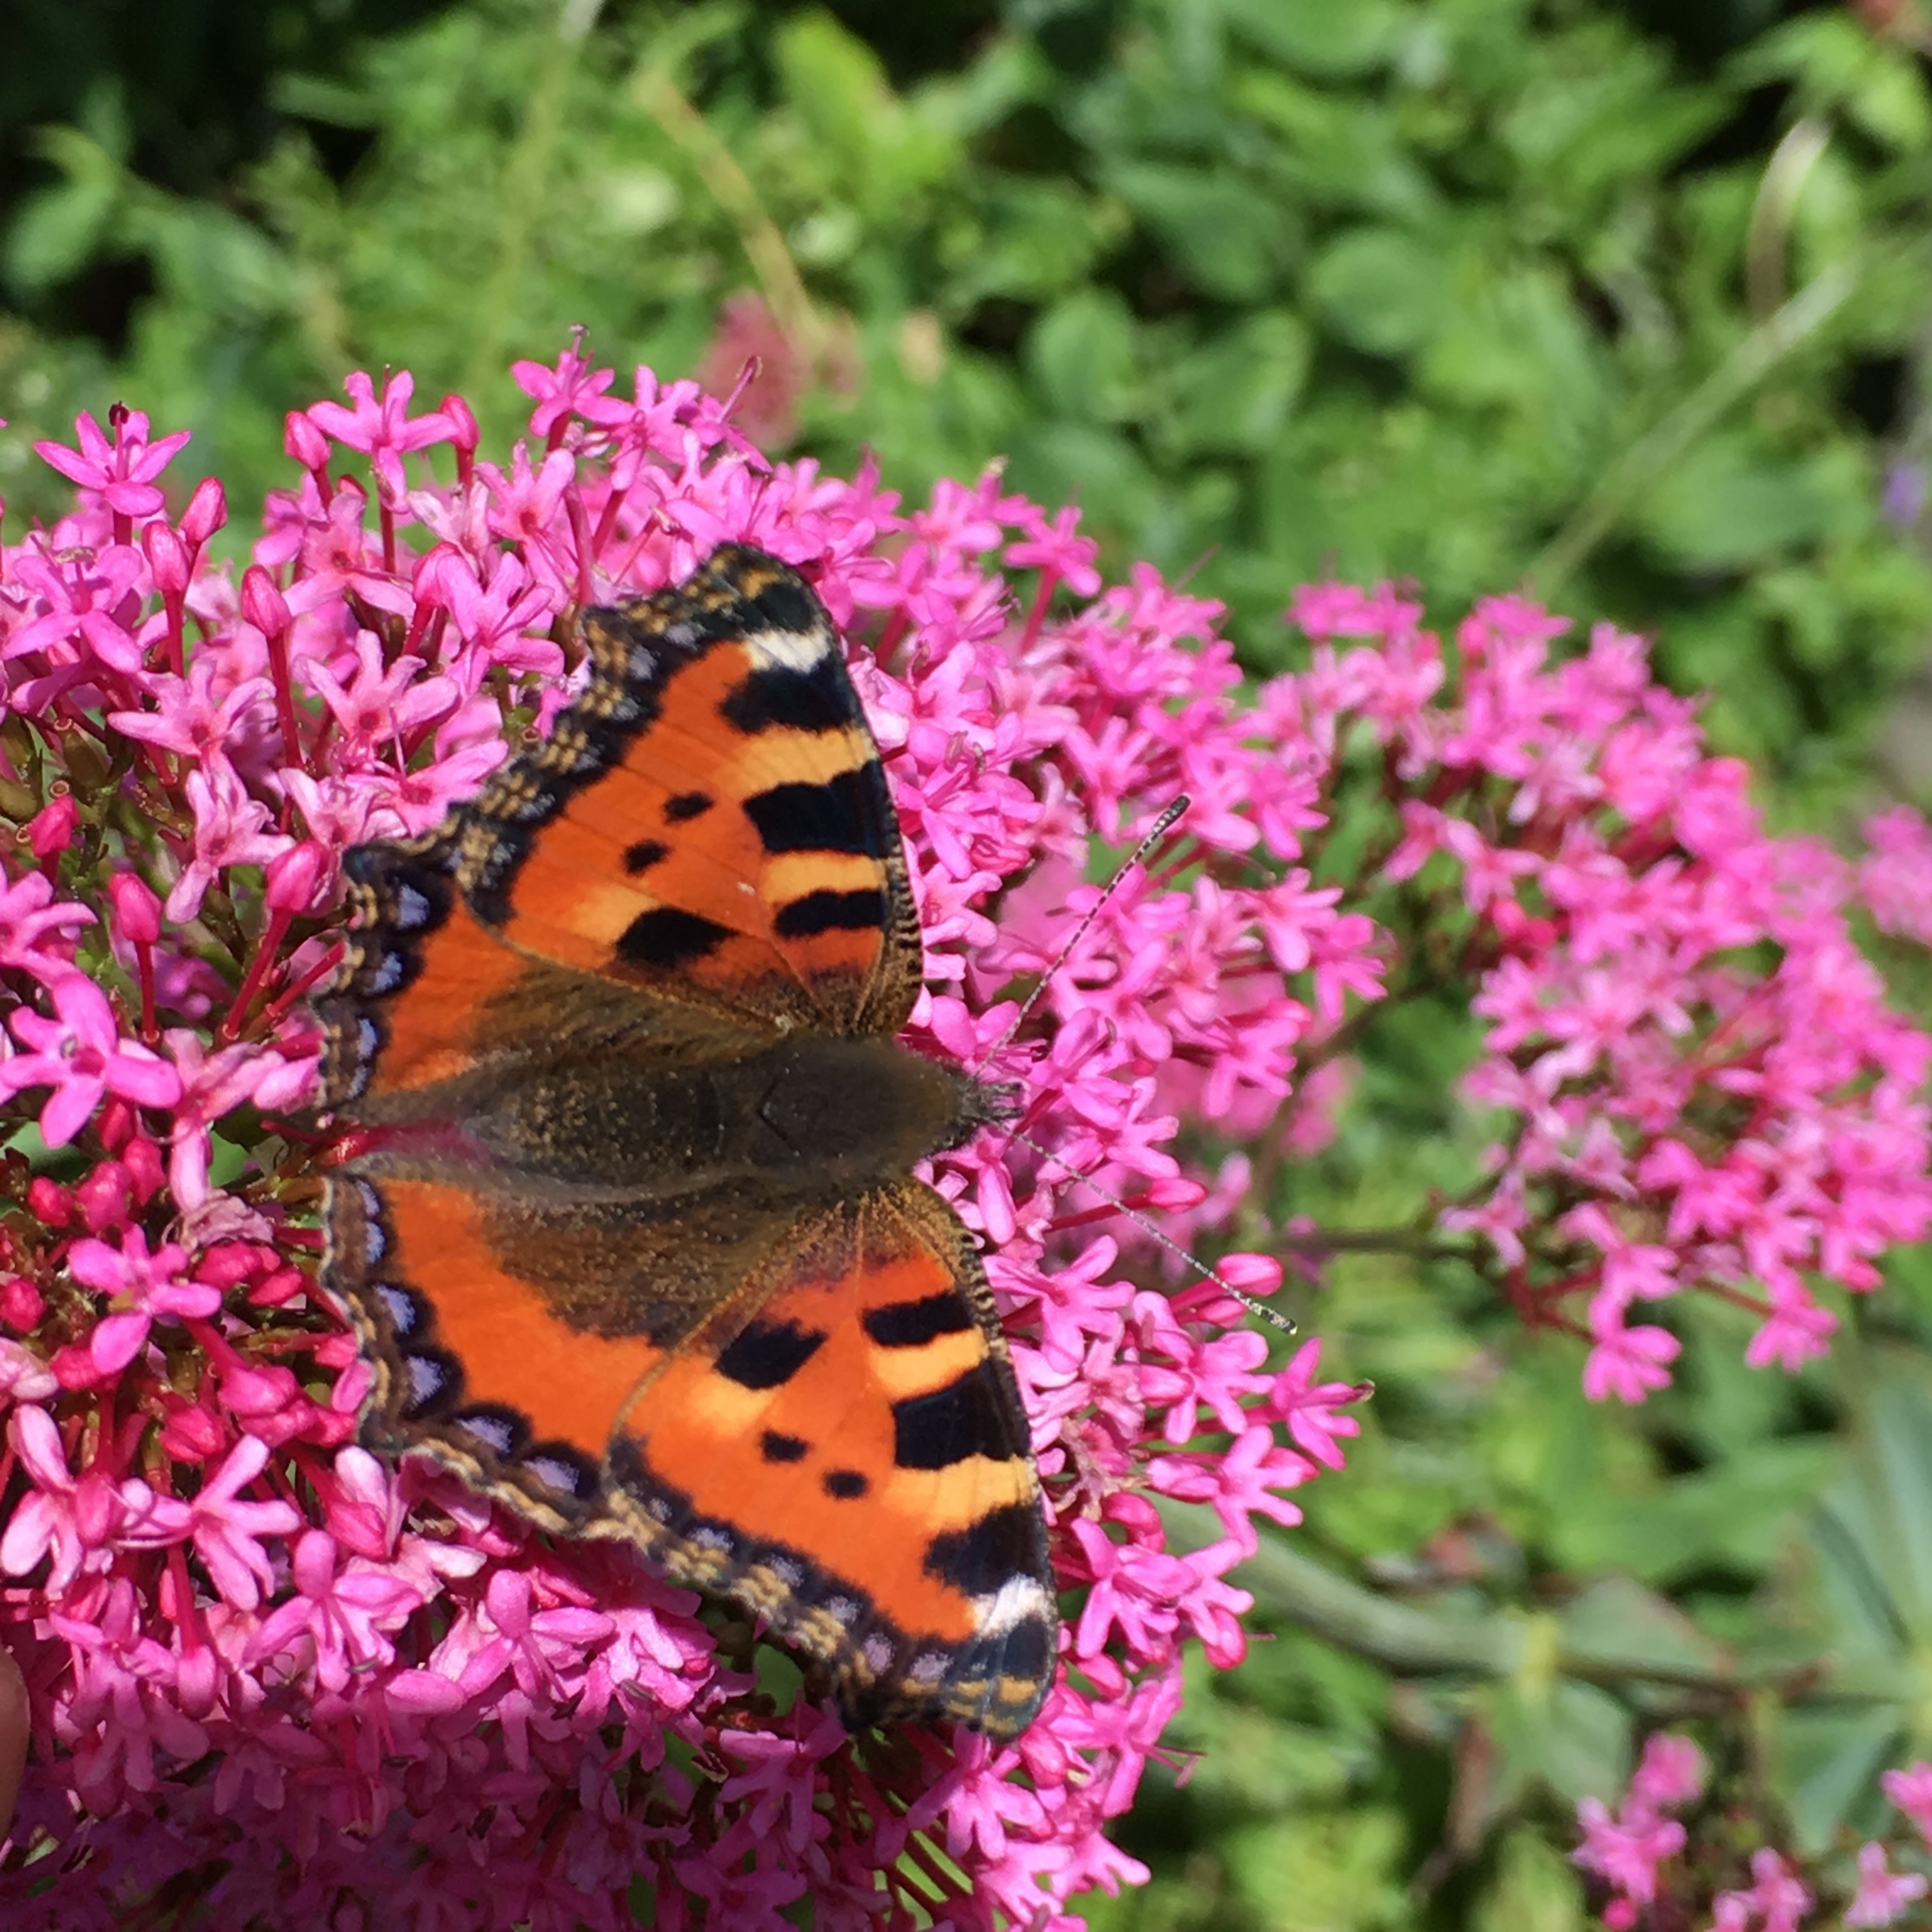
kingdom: Animalia
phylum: Arthropoda
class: Insecta
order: Lepidoptera
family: Nymphalidae
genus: Aglais
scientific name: Aglais urticae
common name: Small tortoiseshell
